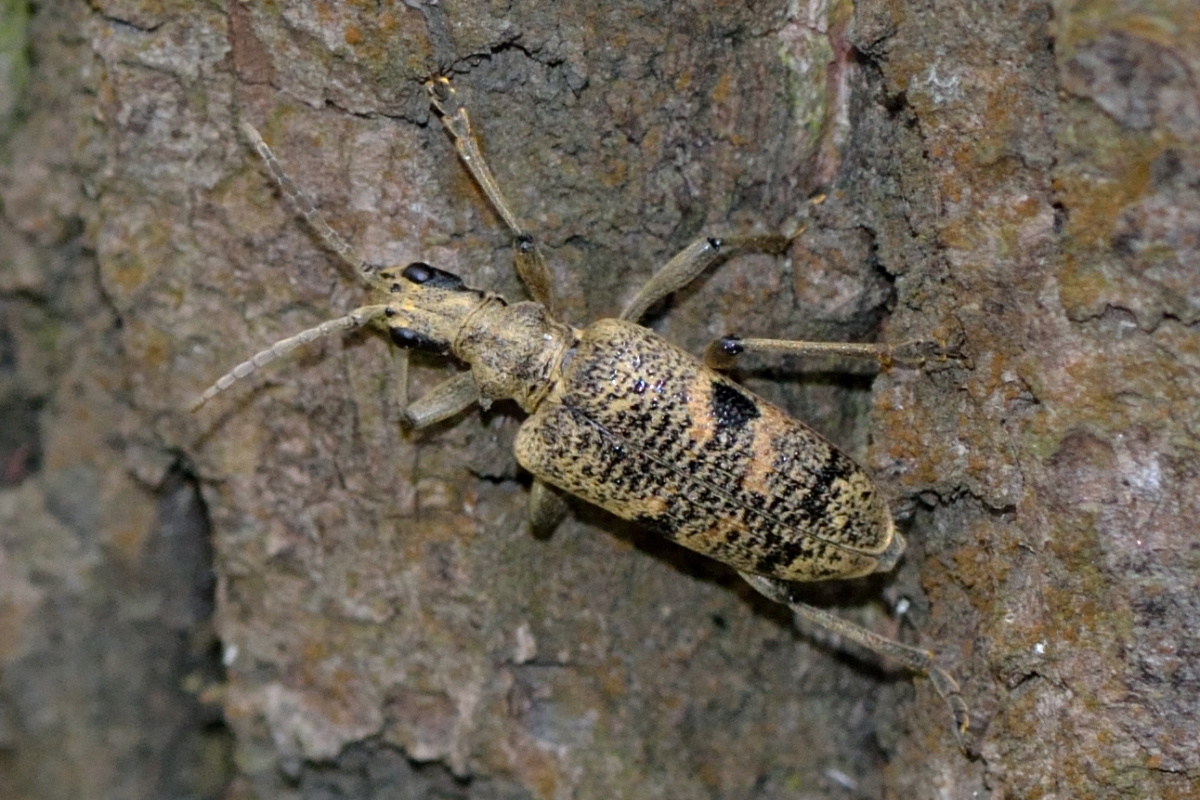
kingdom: Animalia
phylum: Arthropoda
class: Insecta
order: Coleoptera
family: Cerambycidae
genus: Rhagium
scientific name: Rhagium mordax
